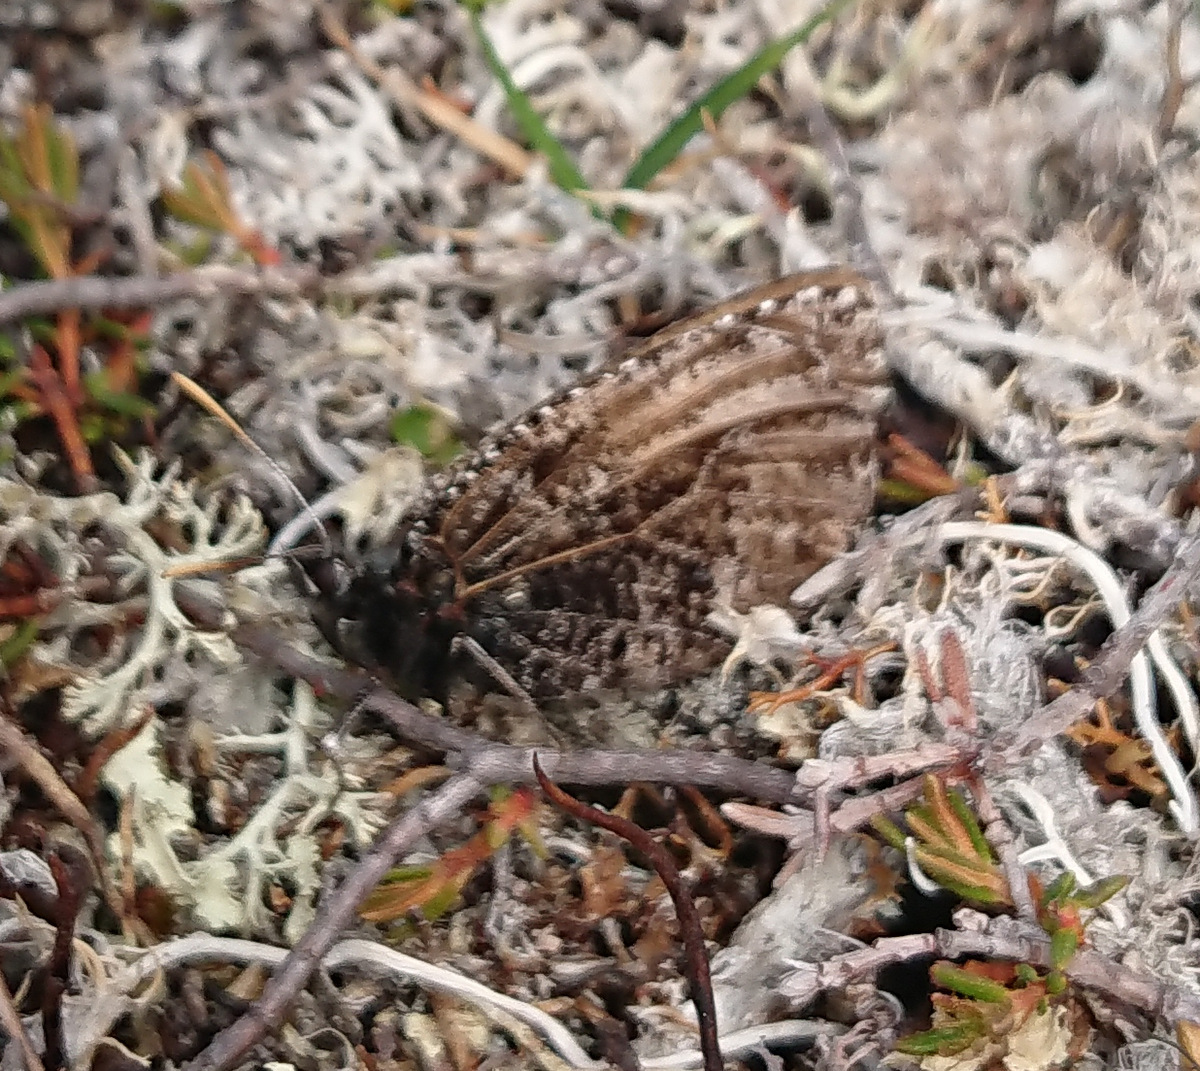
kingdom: Animalia
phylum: Arthropoda
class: Insecta
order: Lepidoptera
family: Nymphalidae
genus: Oeneis
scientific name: Oeneis melissa
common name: Melissa arctic
